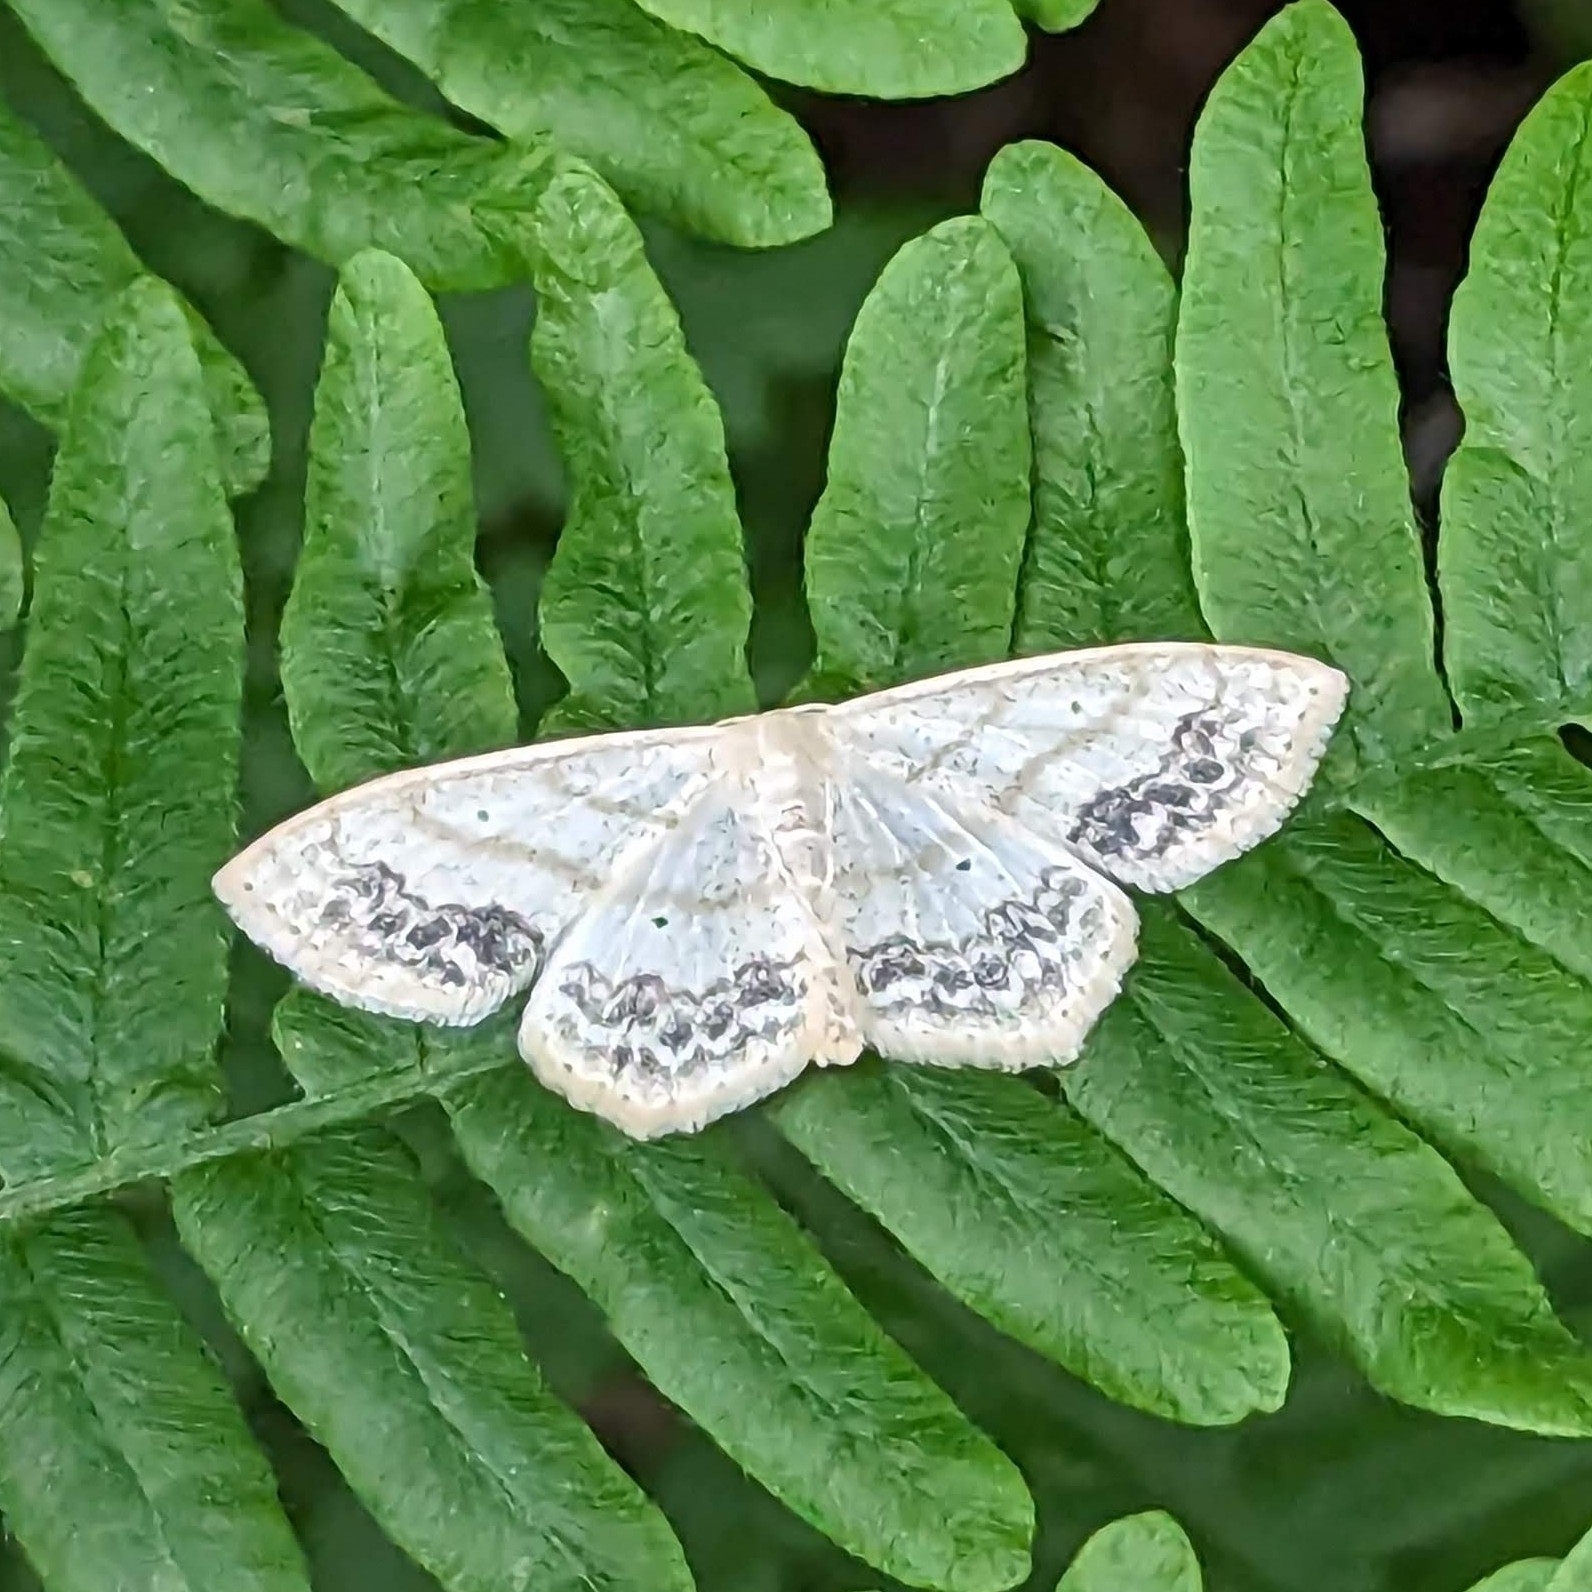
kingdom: Animalia
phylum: Arthropoda
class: Insecta
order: Lepidoptera
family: Geometridae
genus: Scopula
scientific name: Scopula limboundata
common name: Large lace border
